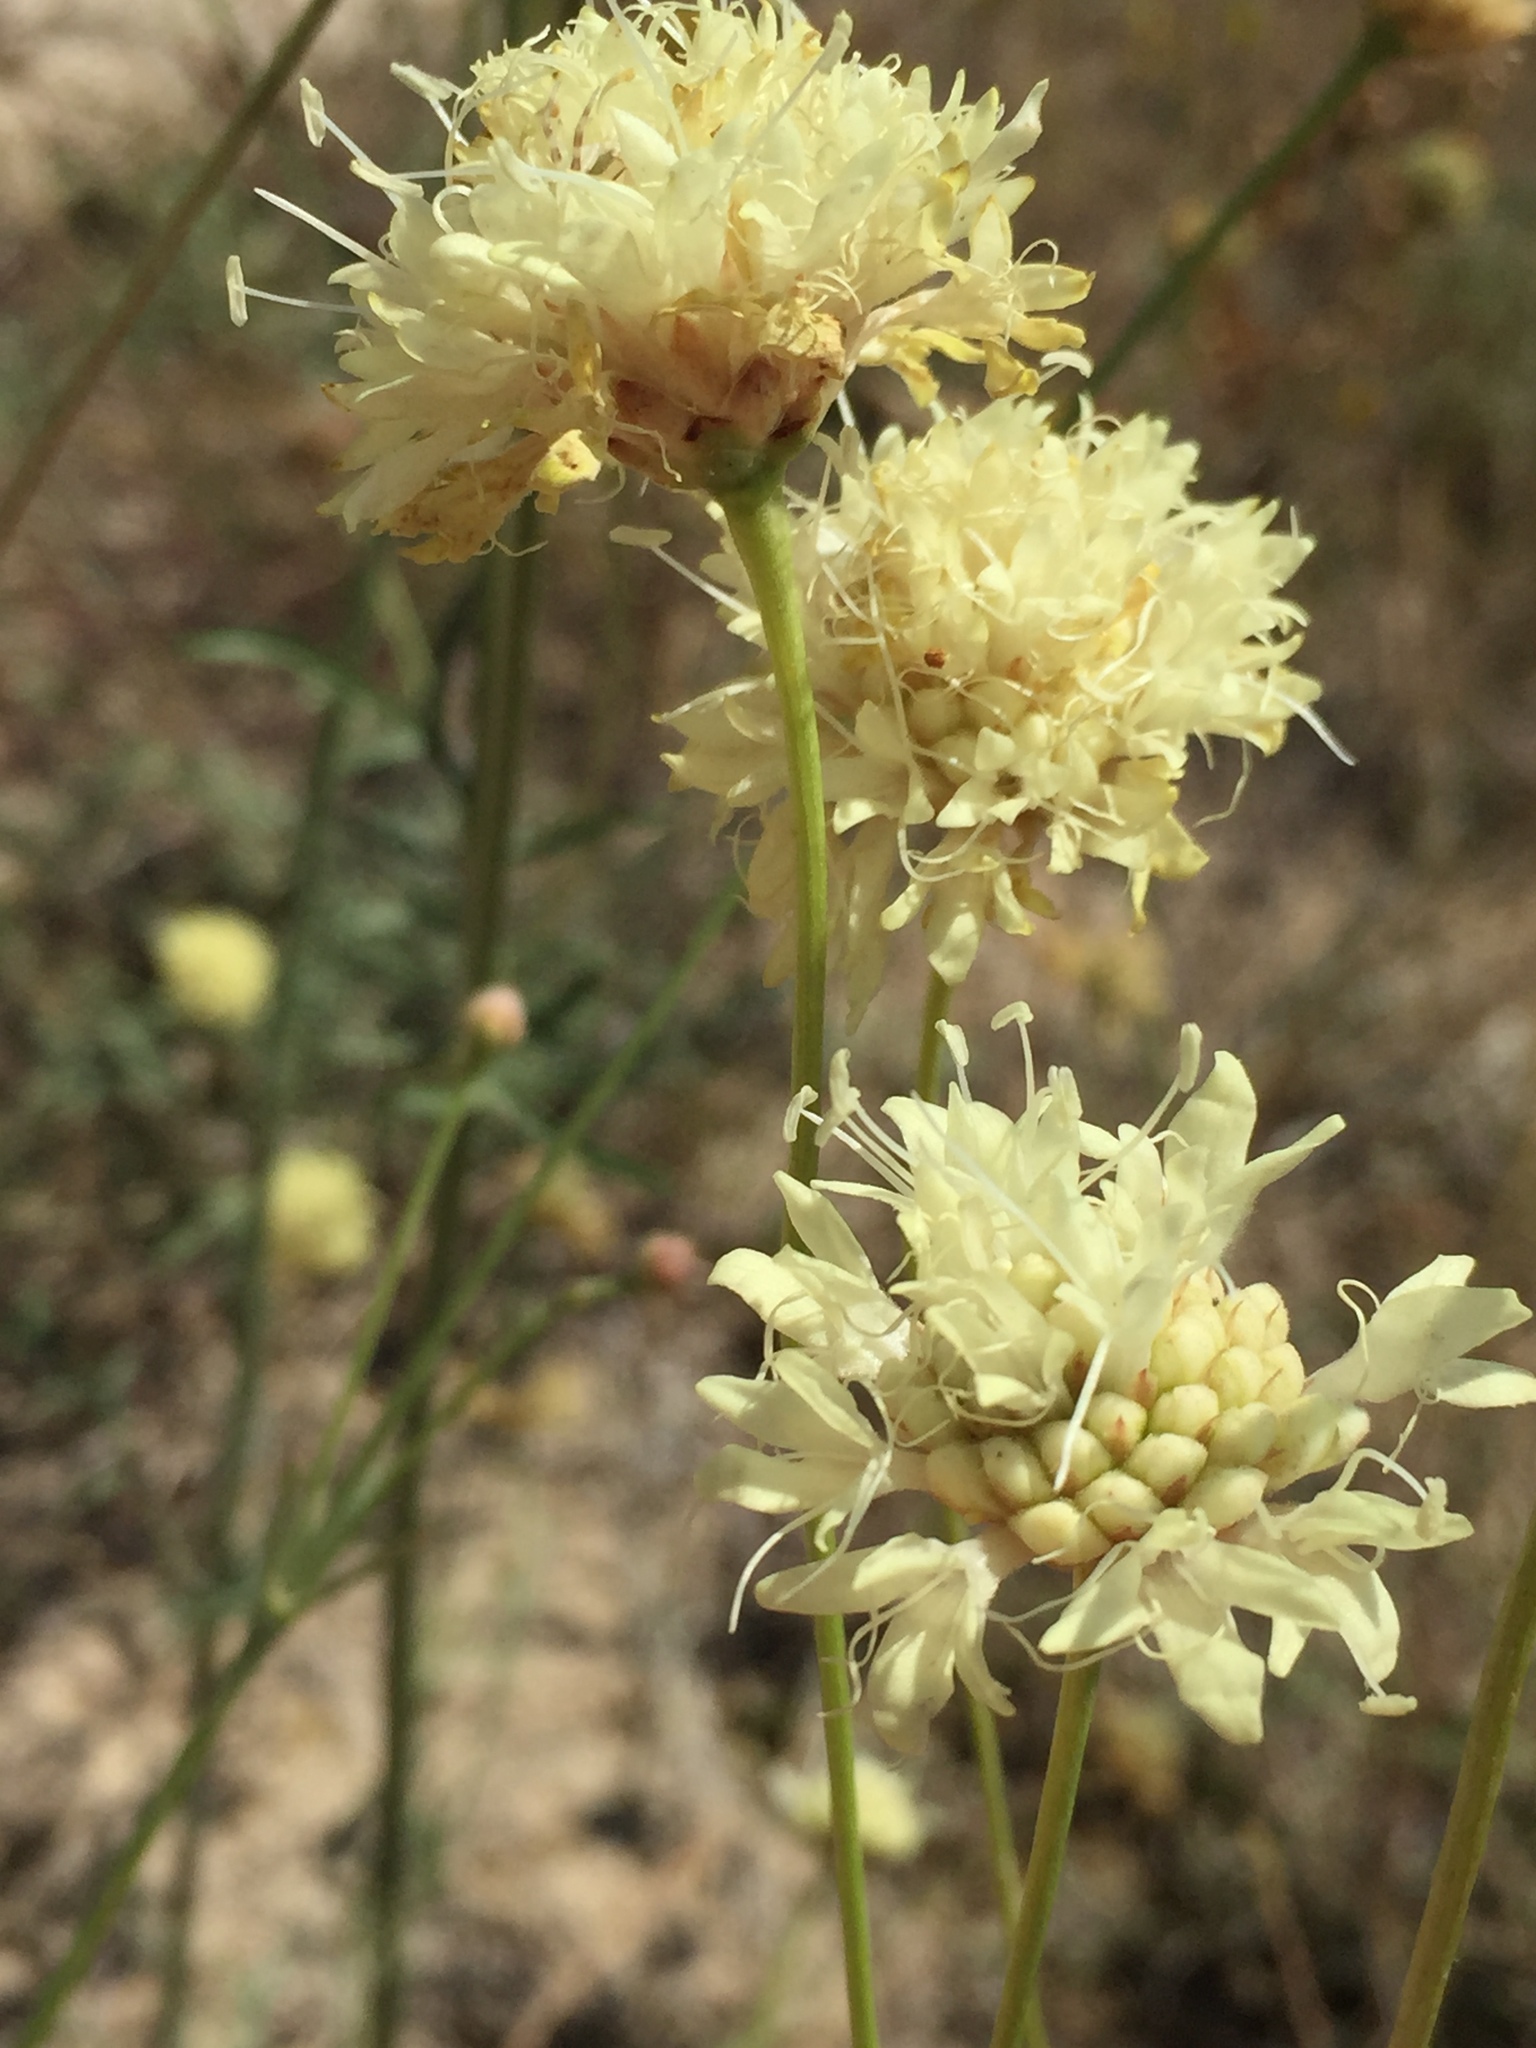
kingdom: Plantae
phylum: Tracheophyta
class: Magnoliopsida
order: Dipsacales
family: Caprifoliaceae
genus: Cephalaria
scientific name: Cephalaria uralensis
